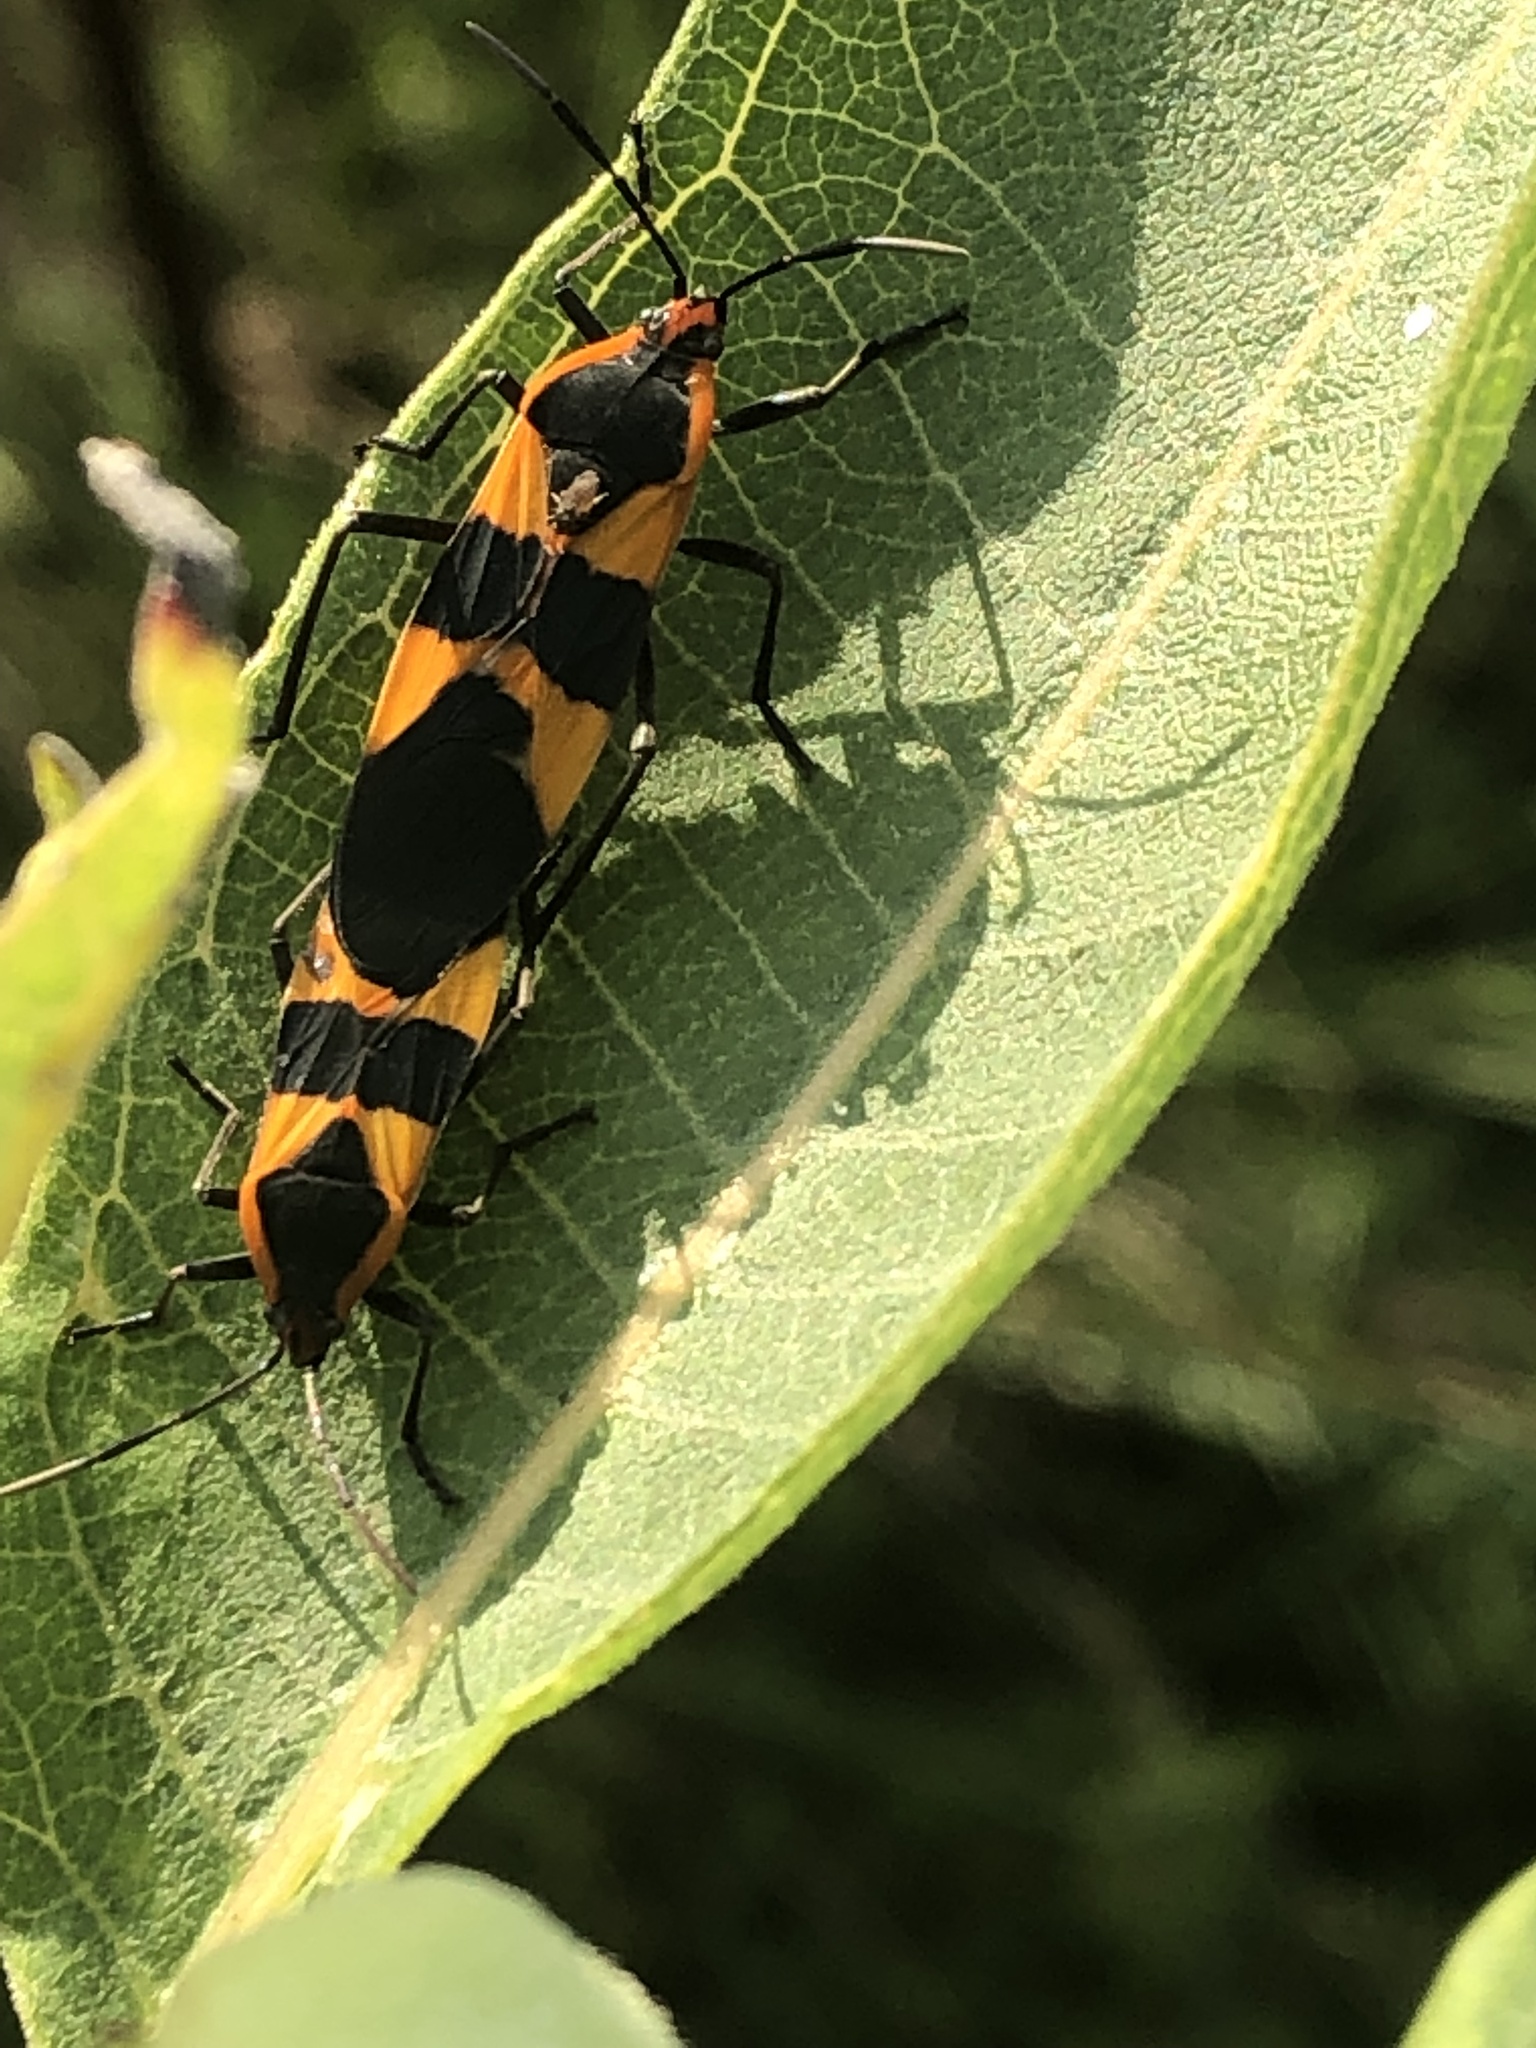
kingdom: Animalia
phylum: Arthropoda
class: Insecta
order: Hemiptera
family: Lygaeidae
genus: Oncopeltus
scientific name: Oncopeltus fasciatus
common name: Large milkweed bug
